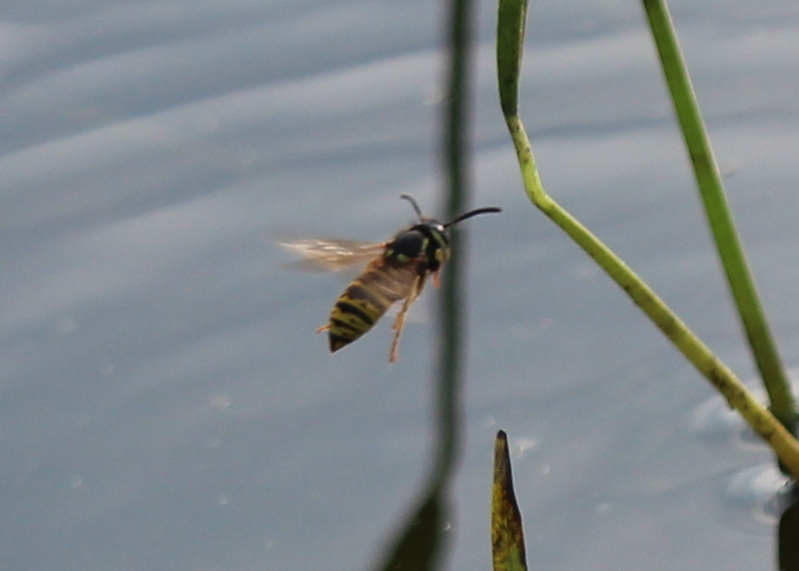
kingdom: Animalia
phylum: Arthropoda
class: Insecta
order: Hymenoptera
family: Vespidae
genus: Vespula
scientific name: Vespula vidua
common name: Widow yellowjacket
